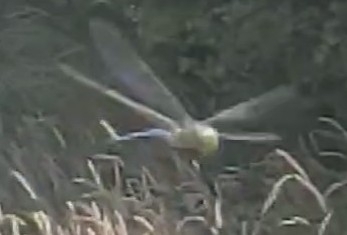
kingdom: Animalia
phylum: Arthropoda
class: Insecta
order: Odonata
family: Aeshnidae
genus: Anax
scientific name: Anax imperator
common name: Emperor dragonfly
